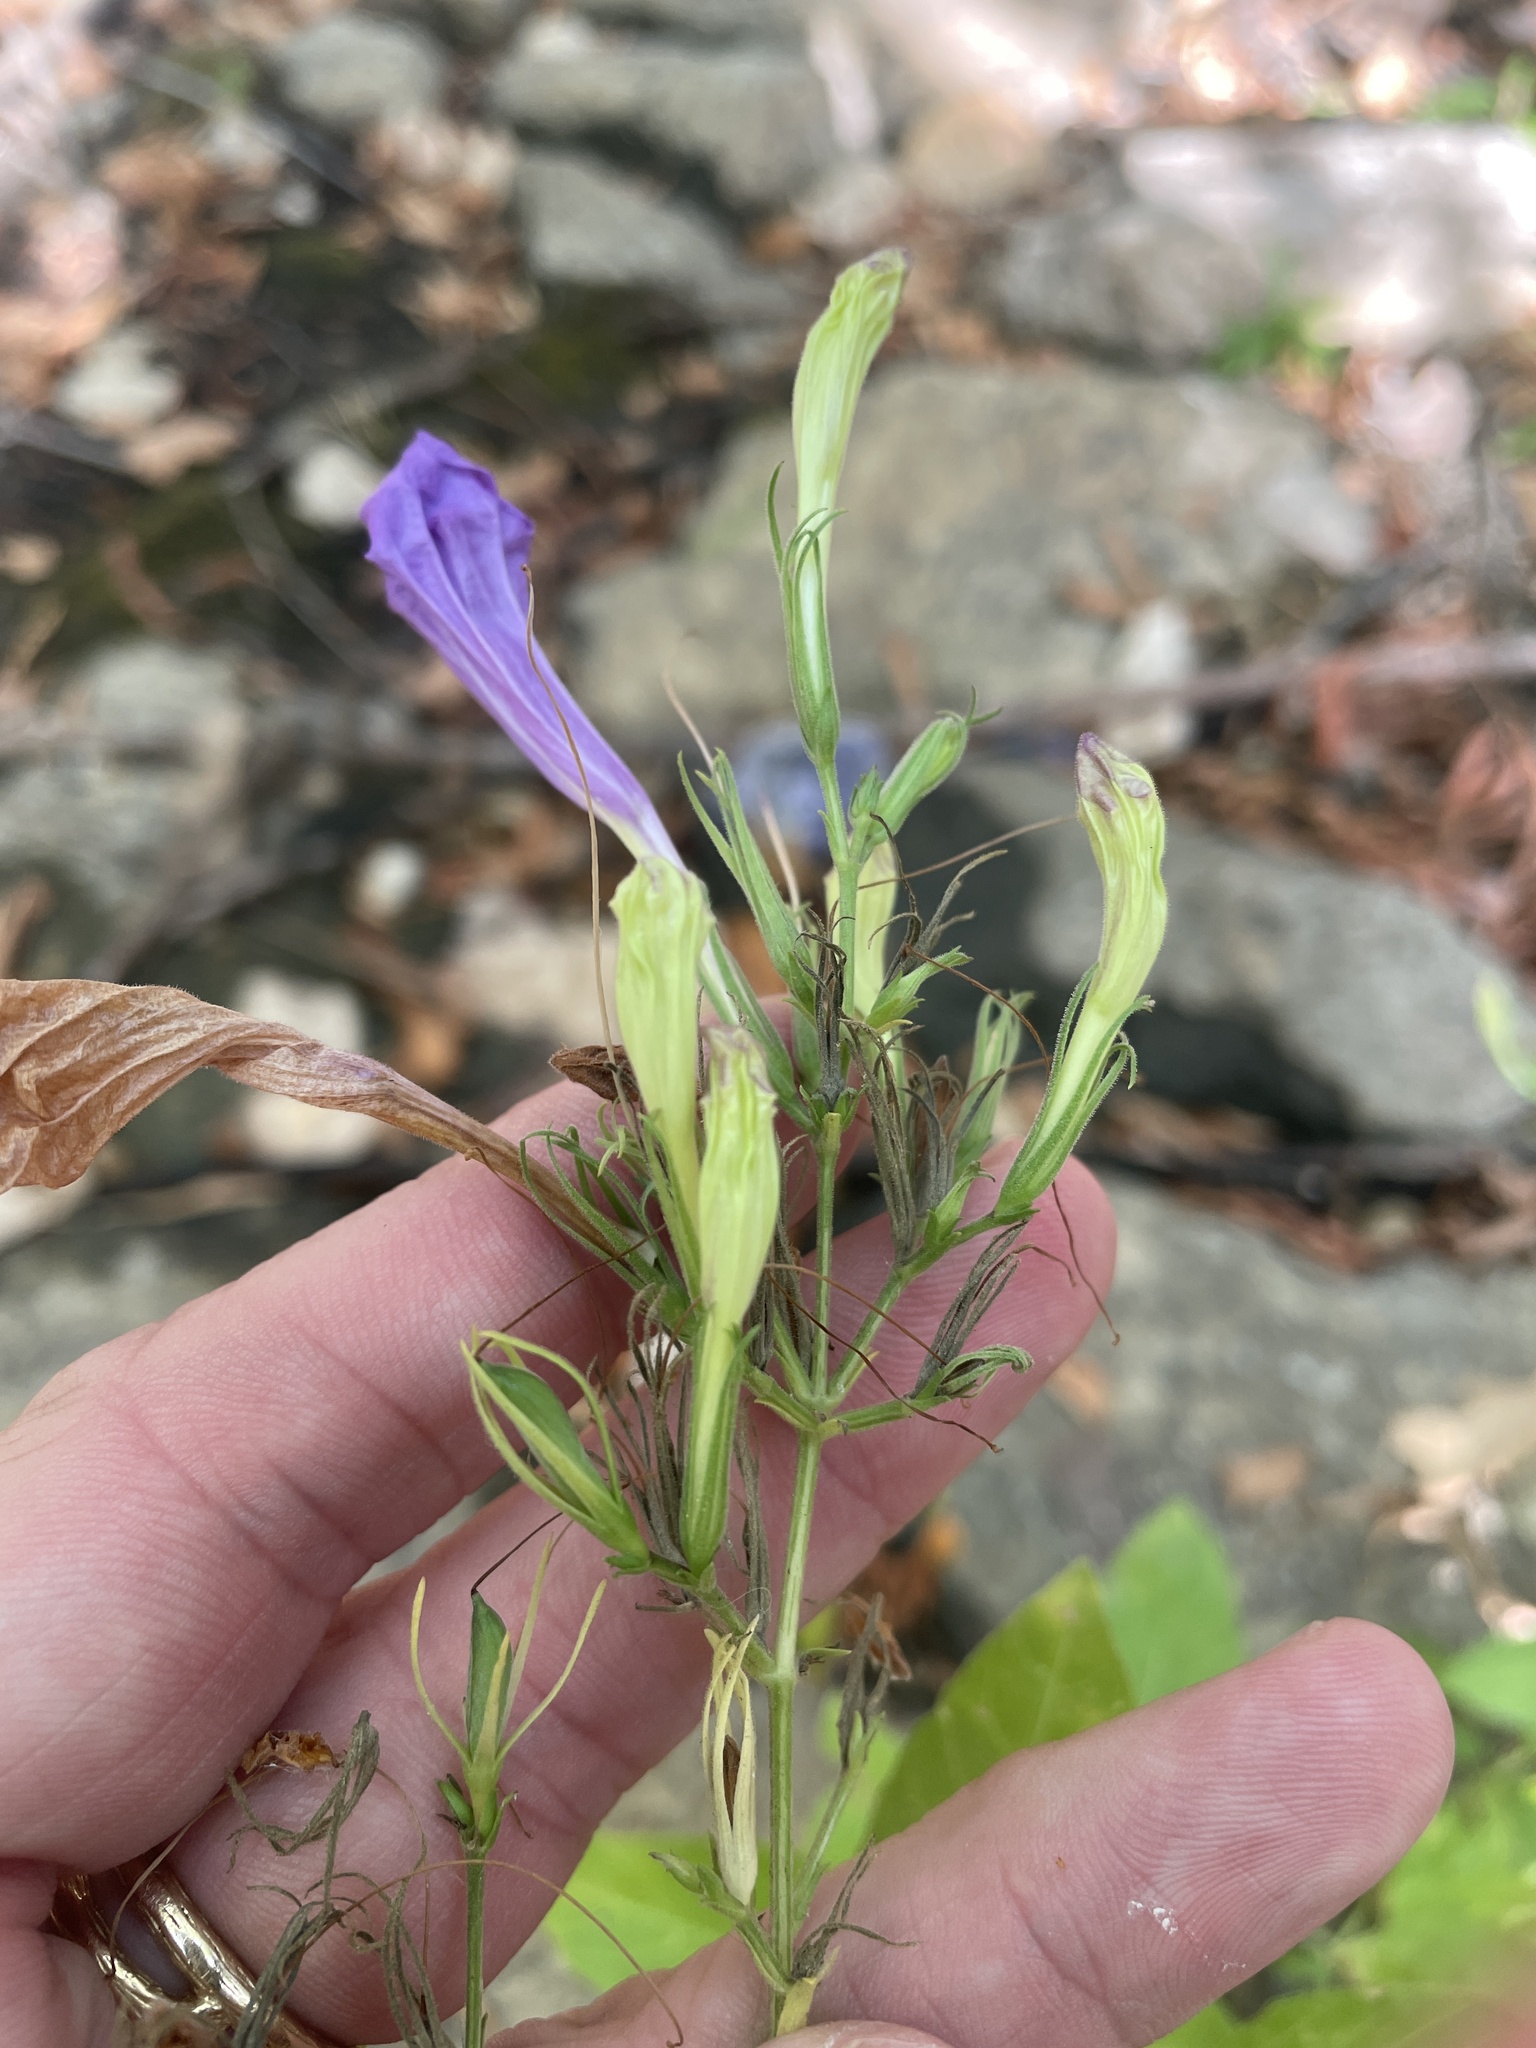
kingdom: Plantae
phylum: Tracheophyta
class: Magnoliopsida
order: Lamiales
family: Acanthaceae
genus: Ruellia
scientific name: Ruellia ciliatiflora
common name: Hairyflower wild petunia
